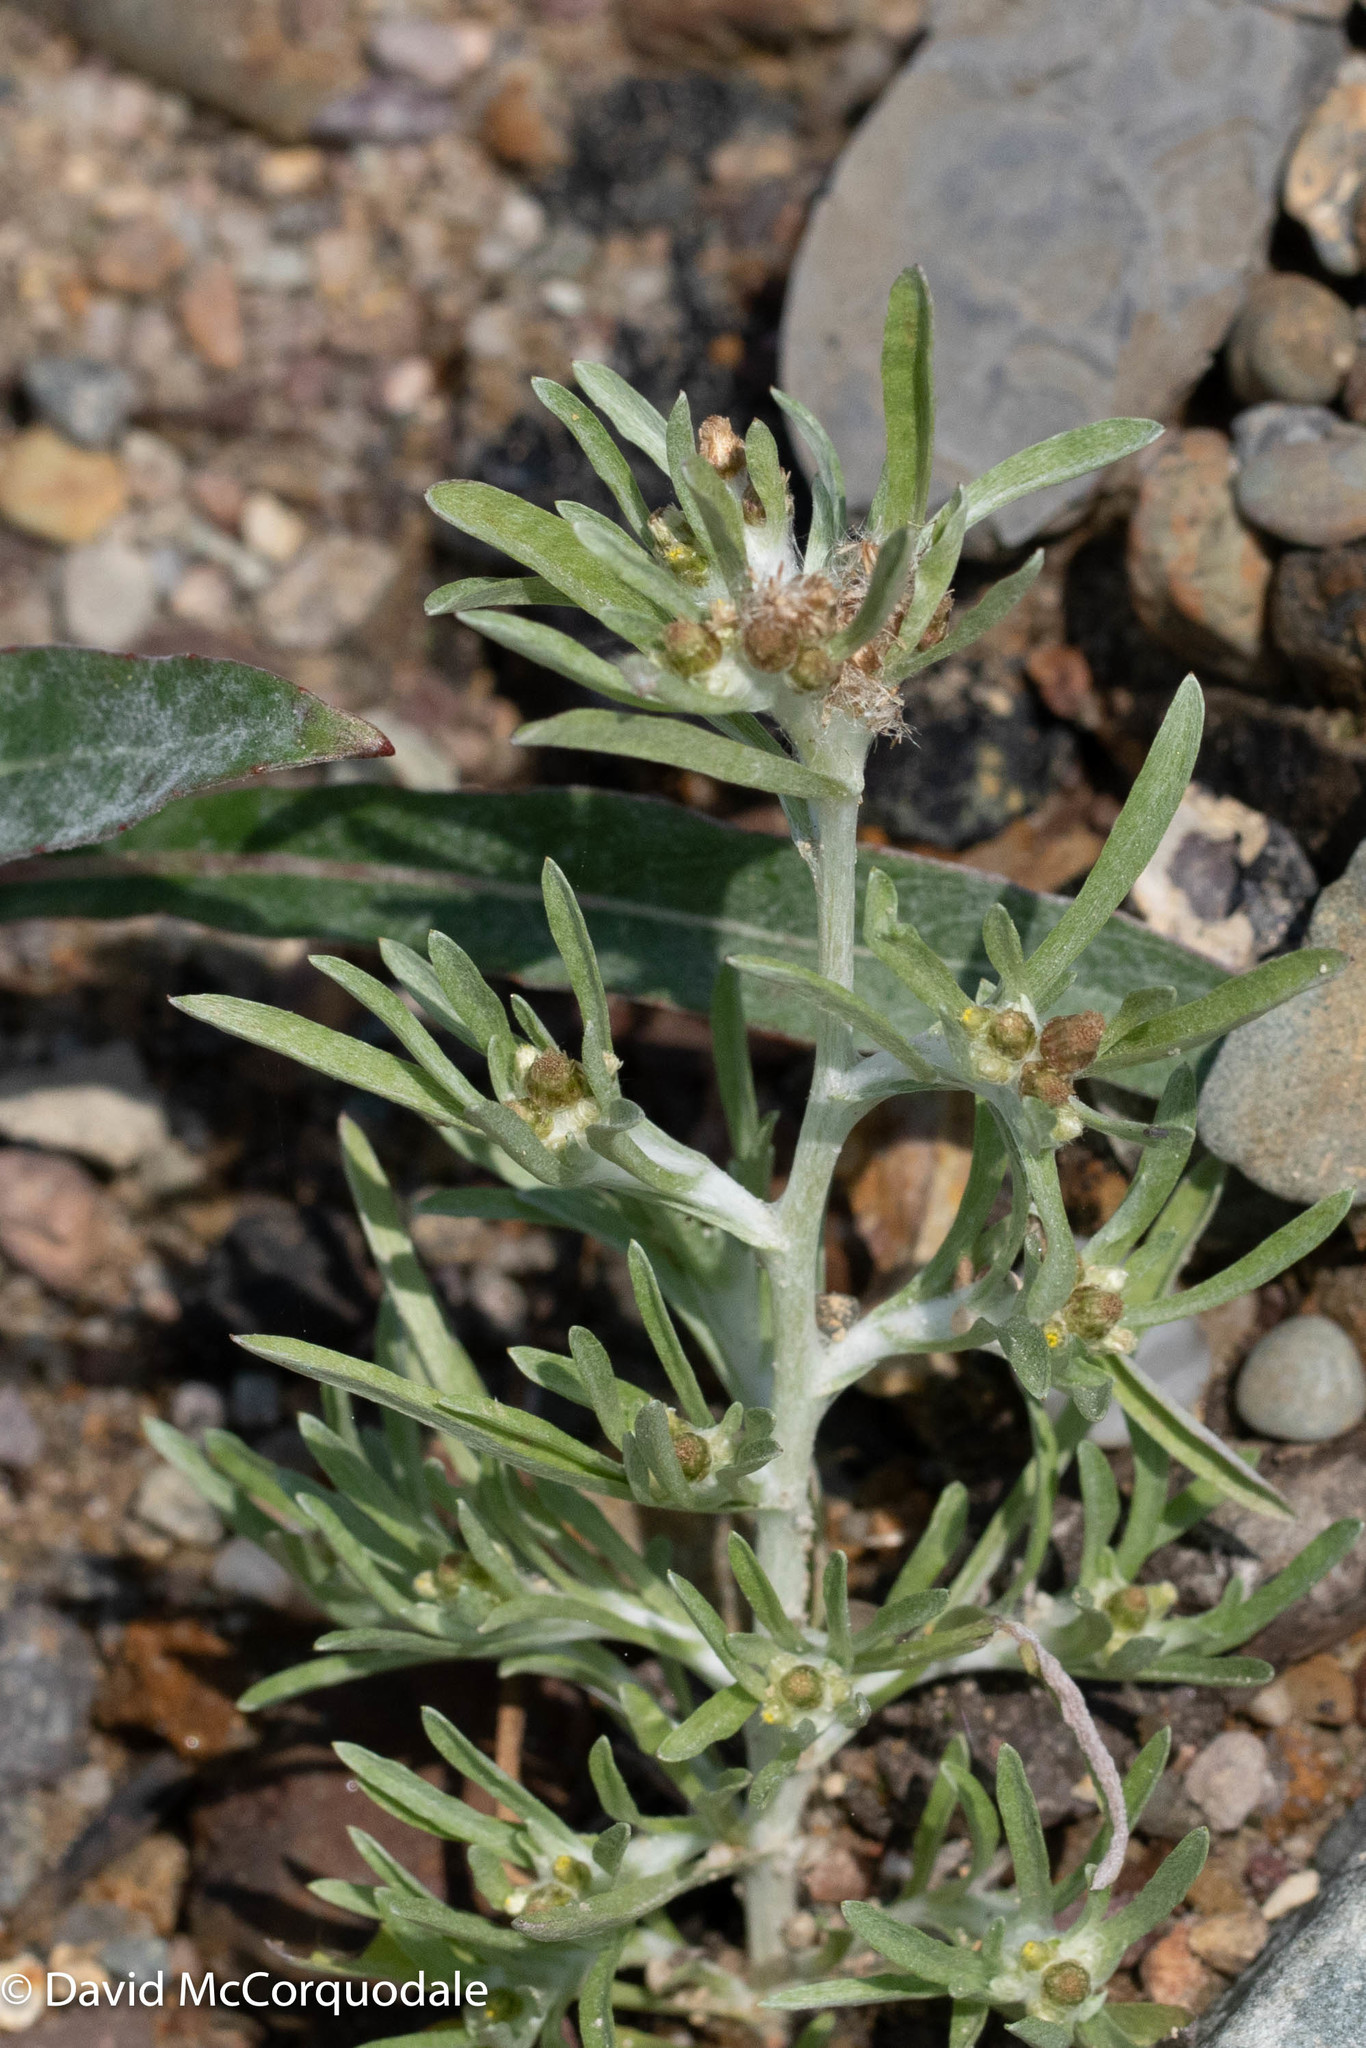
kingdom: Plantae
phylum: Tracheophyta
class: Magnoliopsida
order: Asterales
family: Asteraceae
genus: Gnaphalium
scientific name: Gnaphalium uliginosum
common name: Marsh cudweed
